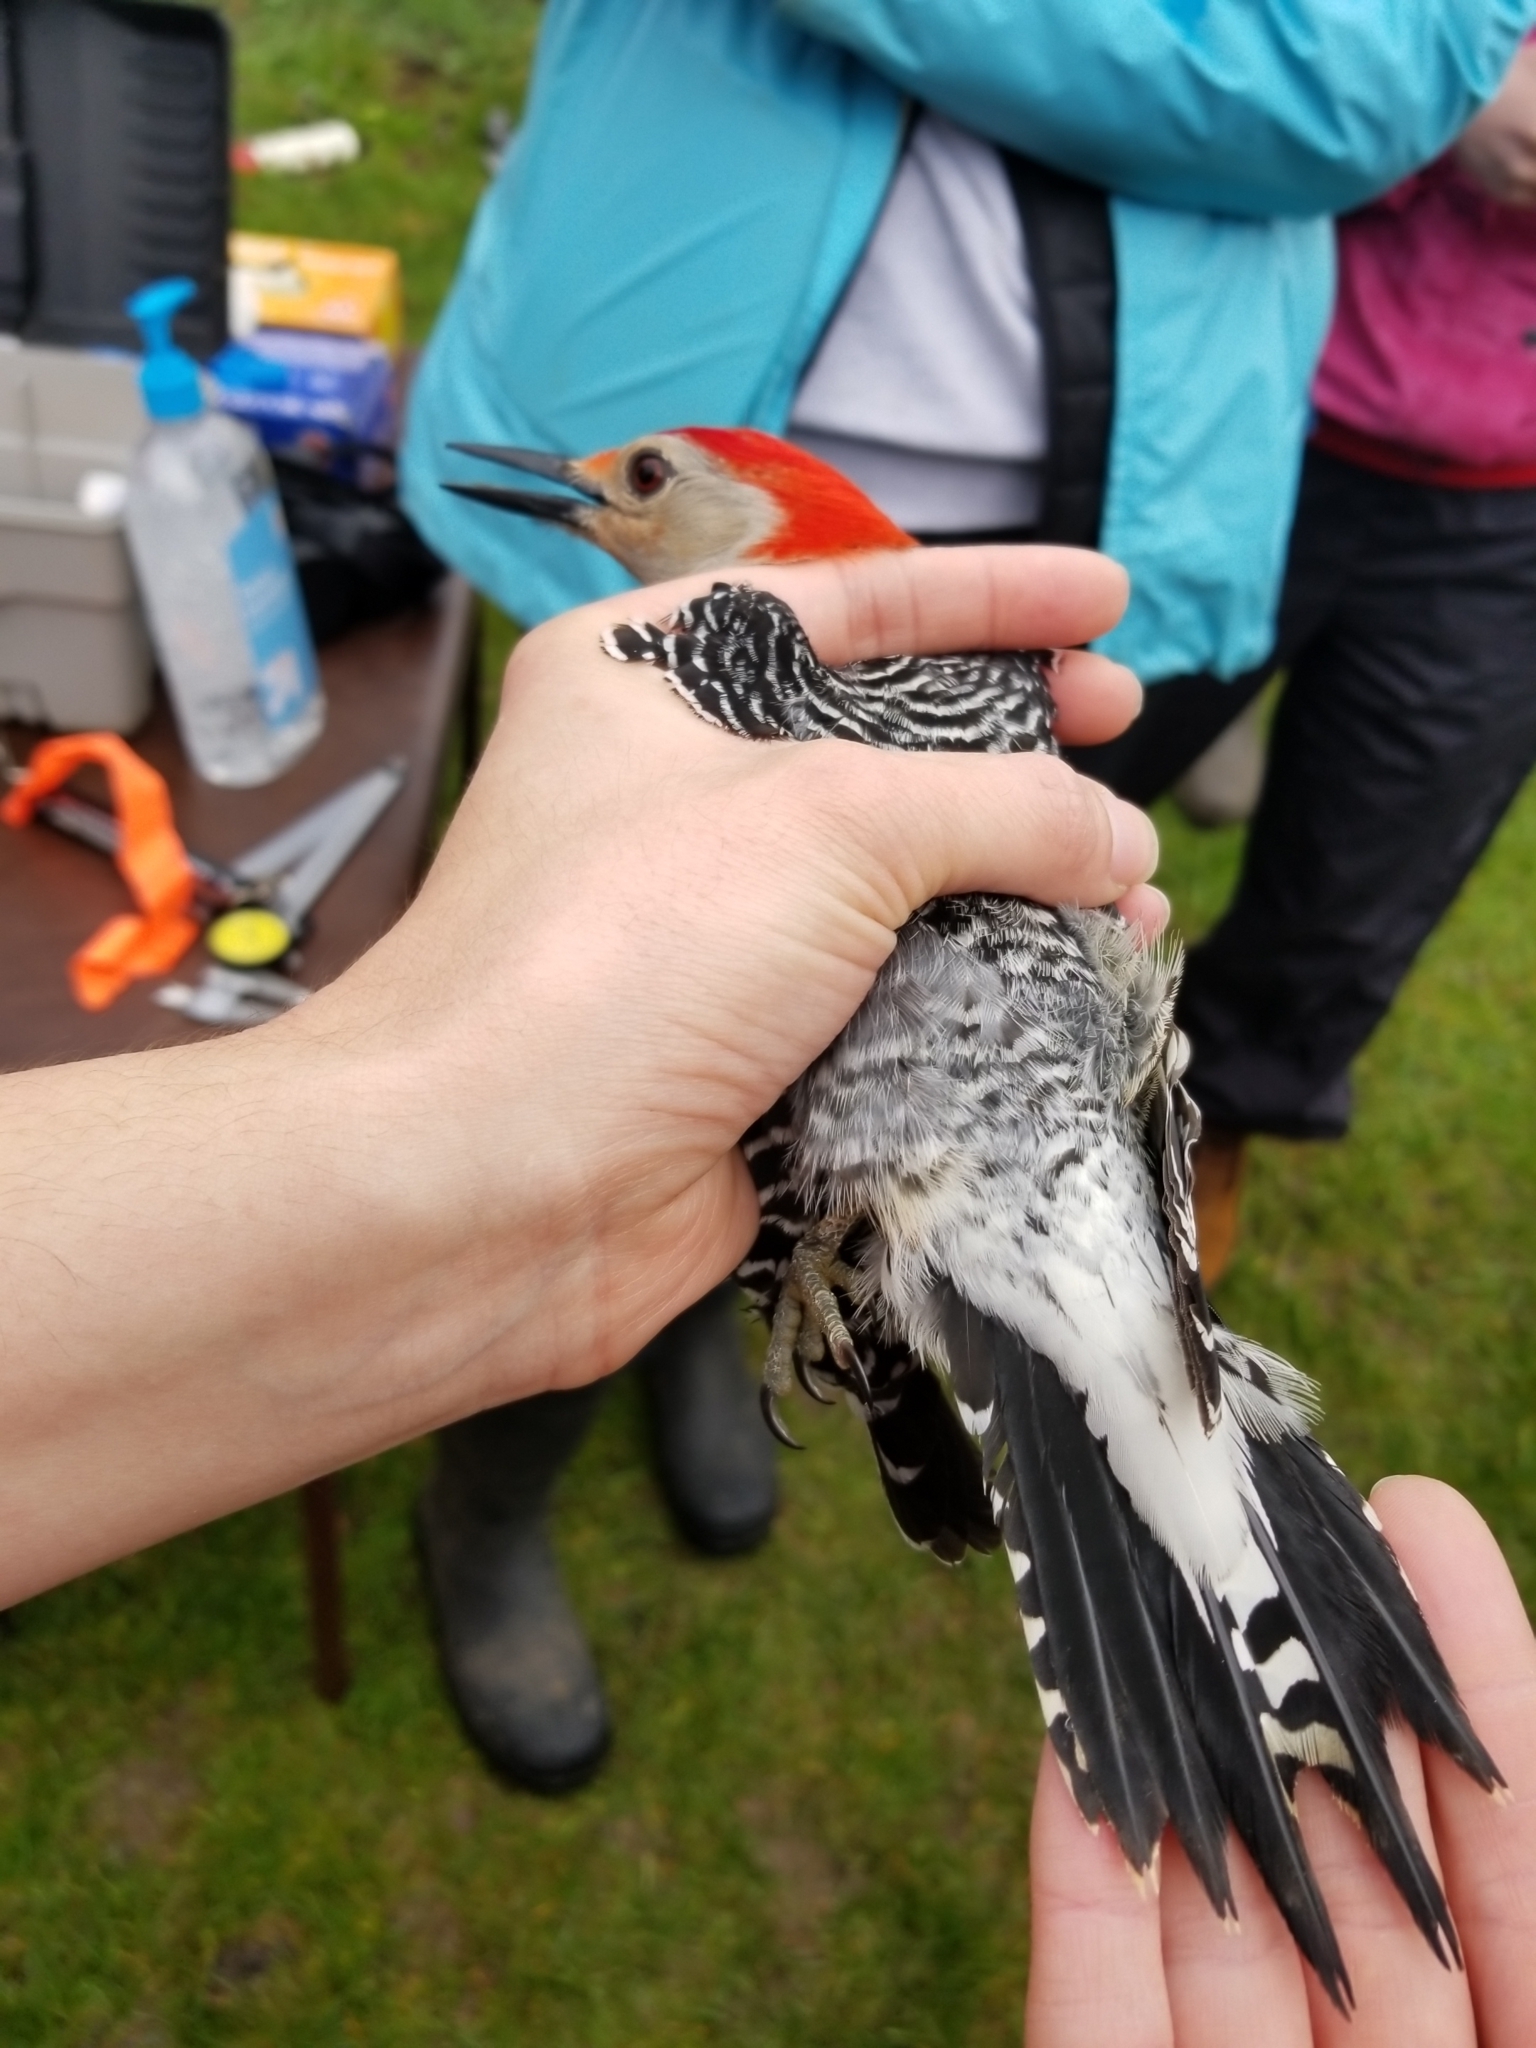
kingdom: Animalia
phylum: Chordata
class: Aves
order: Piciformes
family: Picidae
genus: Melanerpes
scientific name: Melanerpes carolinus
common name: Red-bellied woodpecker
